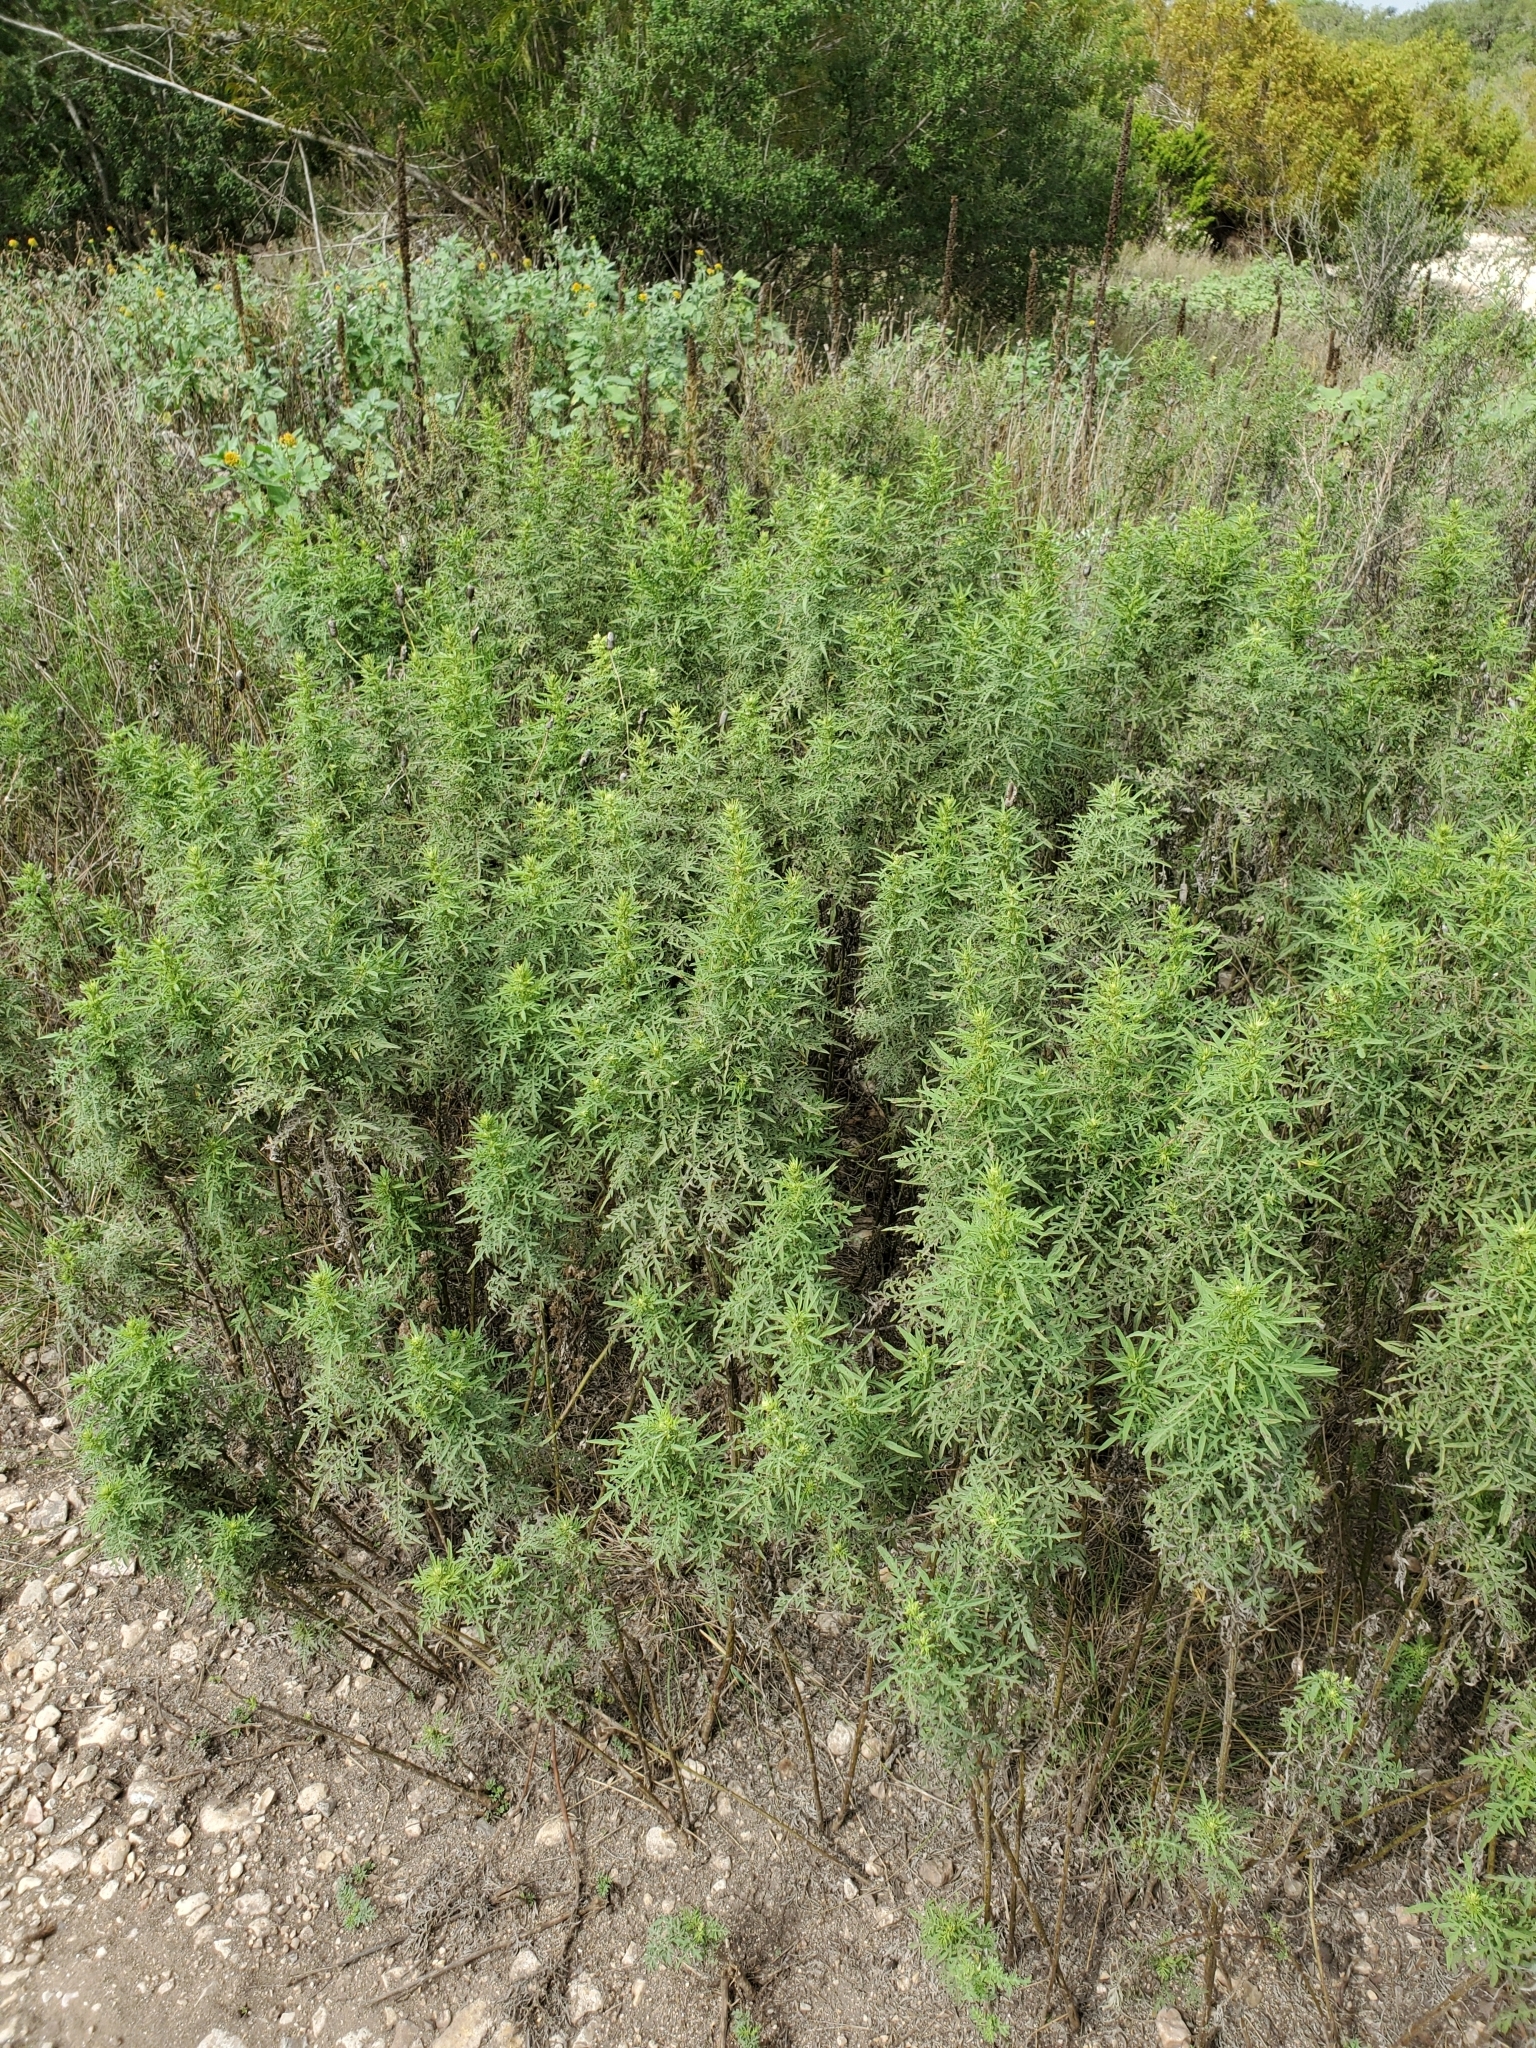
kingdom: Plantae
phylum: Tracheophyta
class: Magnoliopsida
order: Asterales
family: Asteraceae
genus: Ambrosia
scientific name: Ambrosia psilostachya
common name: Perennial ragweed
